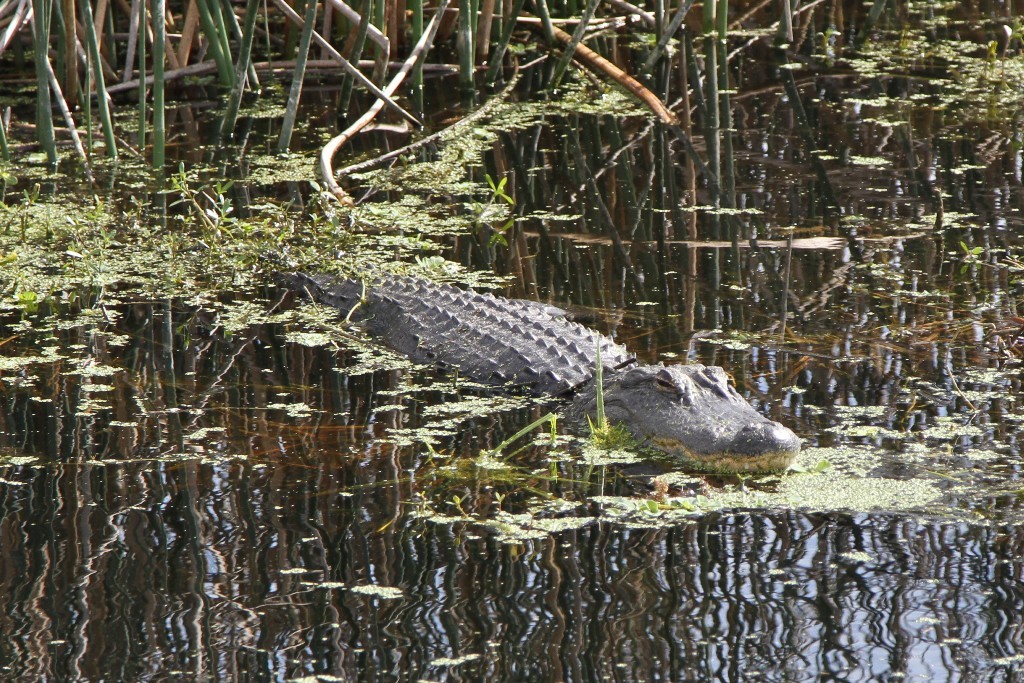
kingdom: Animalia
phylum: Chordata
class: Crocodylia
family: Alligatoridae
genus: Alligator
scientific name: Alligator mississippiensis
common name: American alligator
